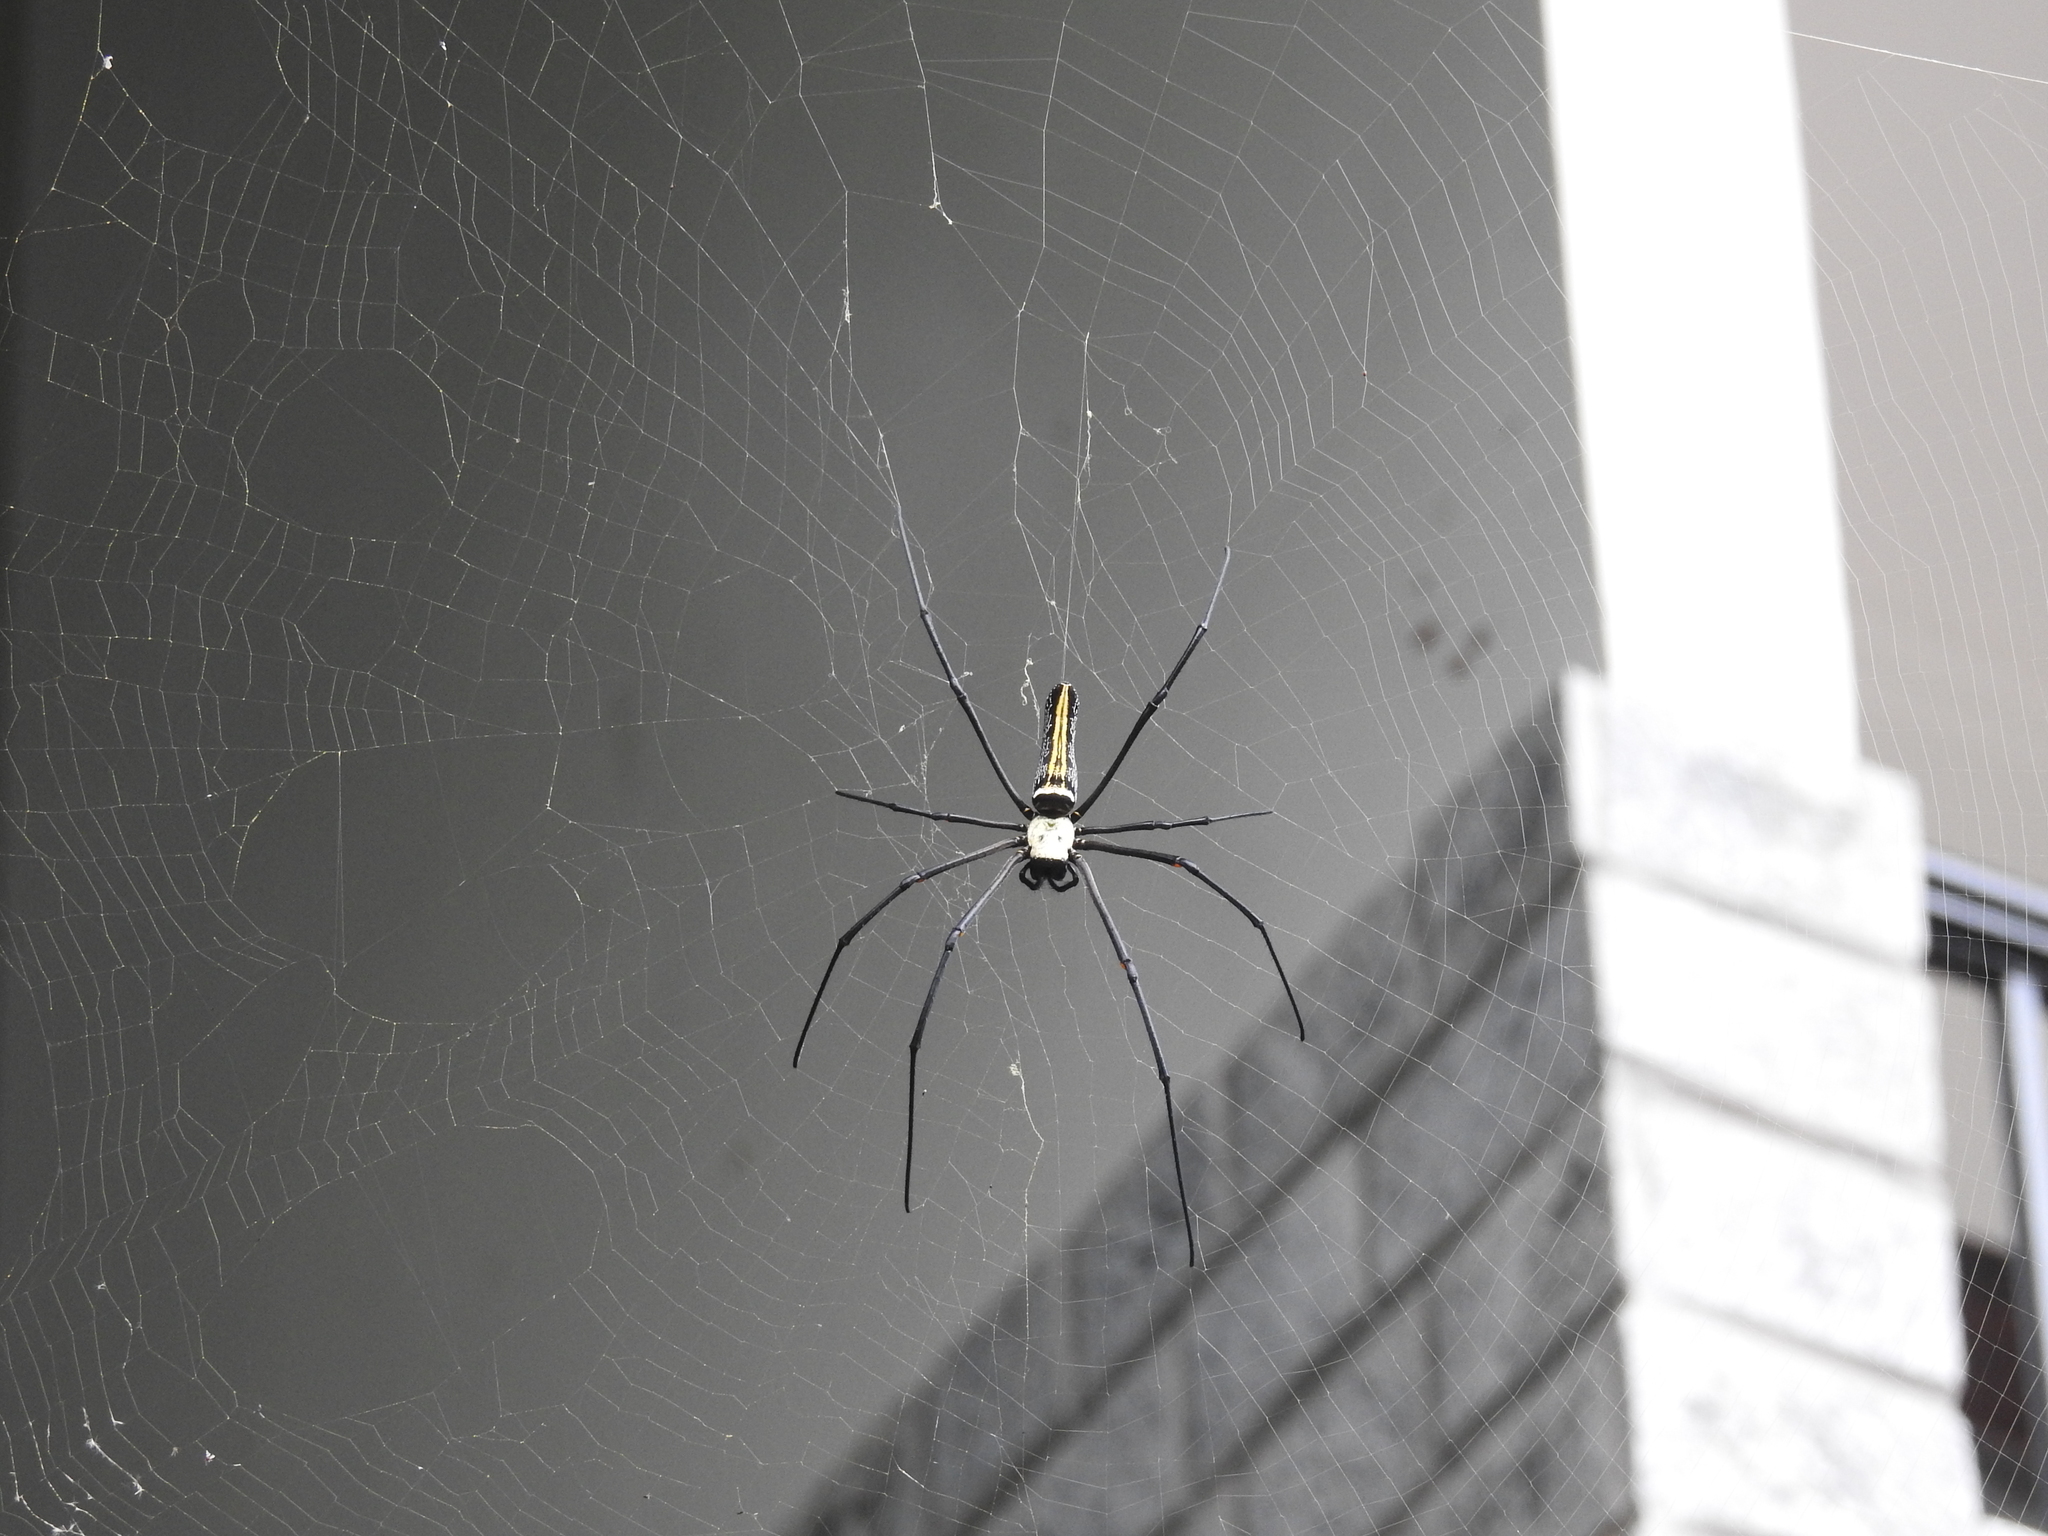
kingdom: Animalia
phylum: Arthropoda
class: Arachnida
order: Araneae
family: Araneidae
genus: Nephila
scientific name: Nephila pilipes
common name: Giant golden orb weaver
